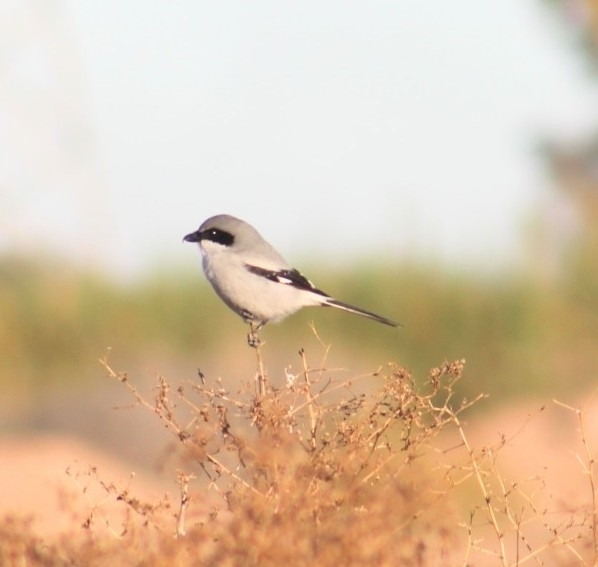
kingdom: Animalia
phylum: Chordata
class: Aves
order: Passeriformes
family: Laniidae
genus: Lanius
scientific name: Lanius ludovicianus
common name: Loggerhead shrike
